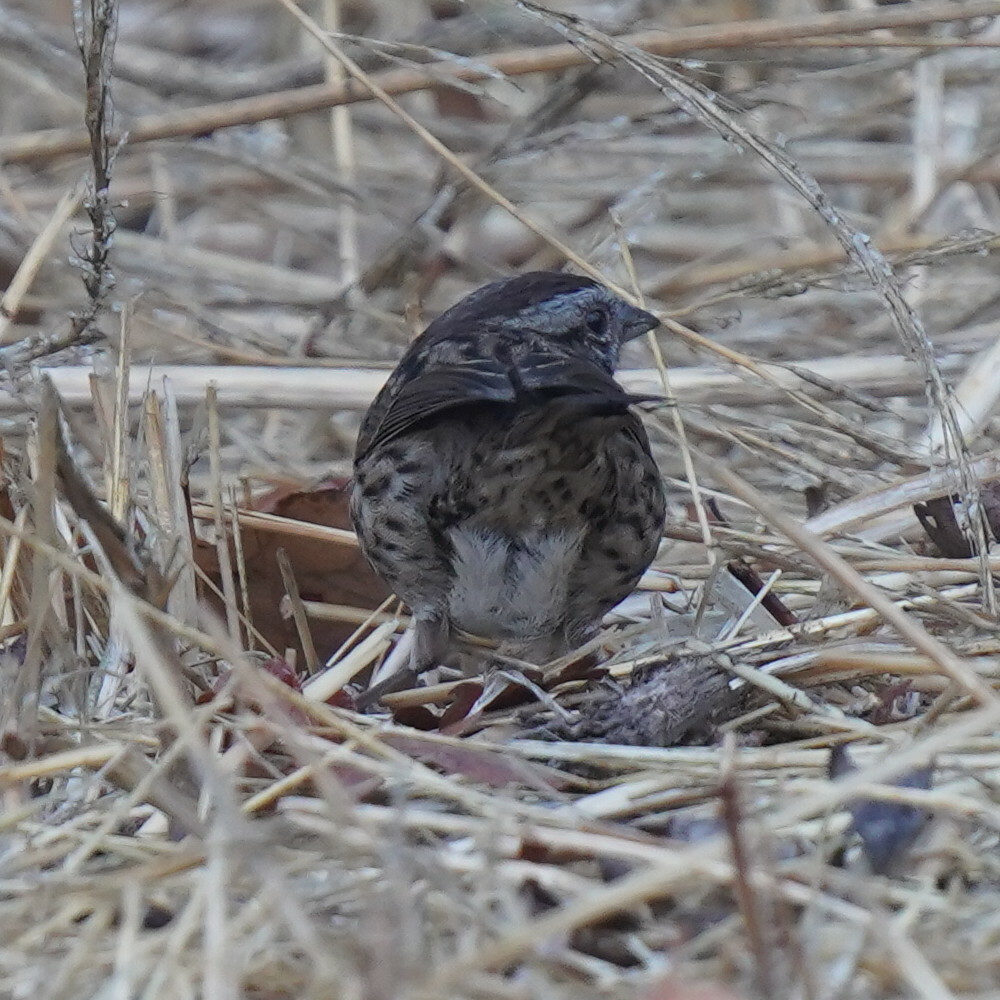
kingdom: Animalia
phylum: Chordata
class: Aves
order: Passeriformes
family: Passerellidae
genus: Melospiza
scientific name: Melospiza melodia
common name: Song sparrow
